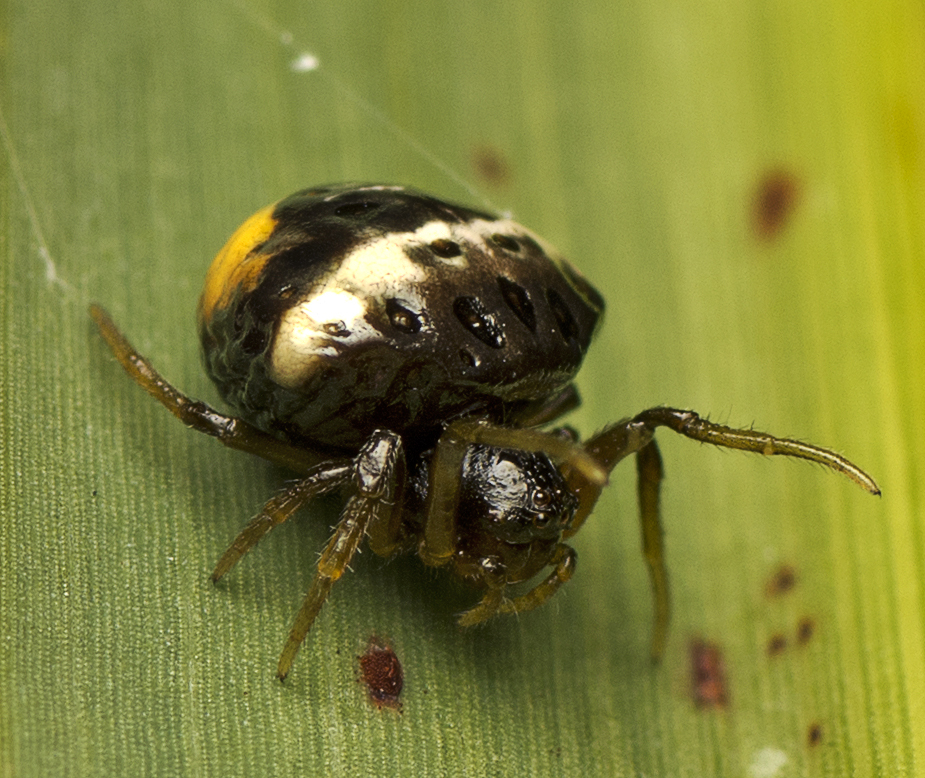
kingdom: Animalia
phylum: Arthropoda
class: Arachnida
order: Araneae
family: Araneidae
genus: Cyrtarachne
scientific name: Cyrtarachne tricolor
